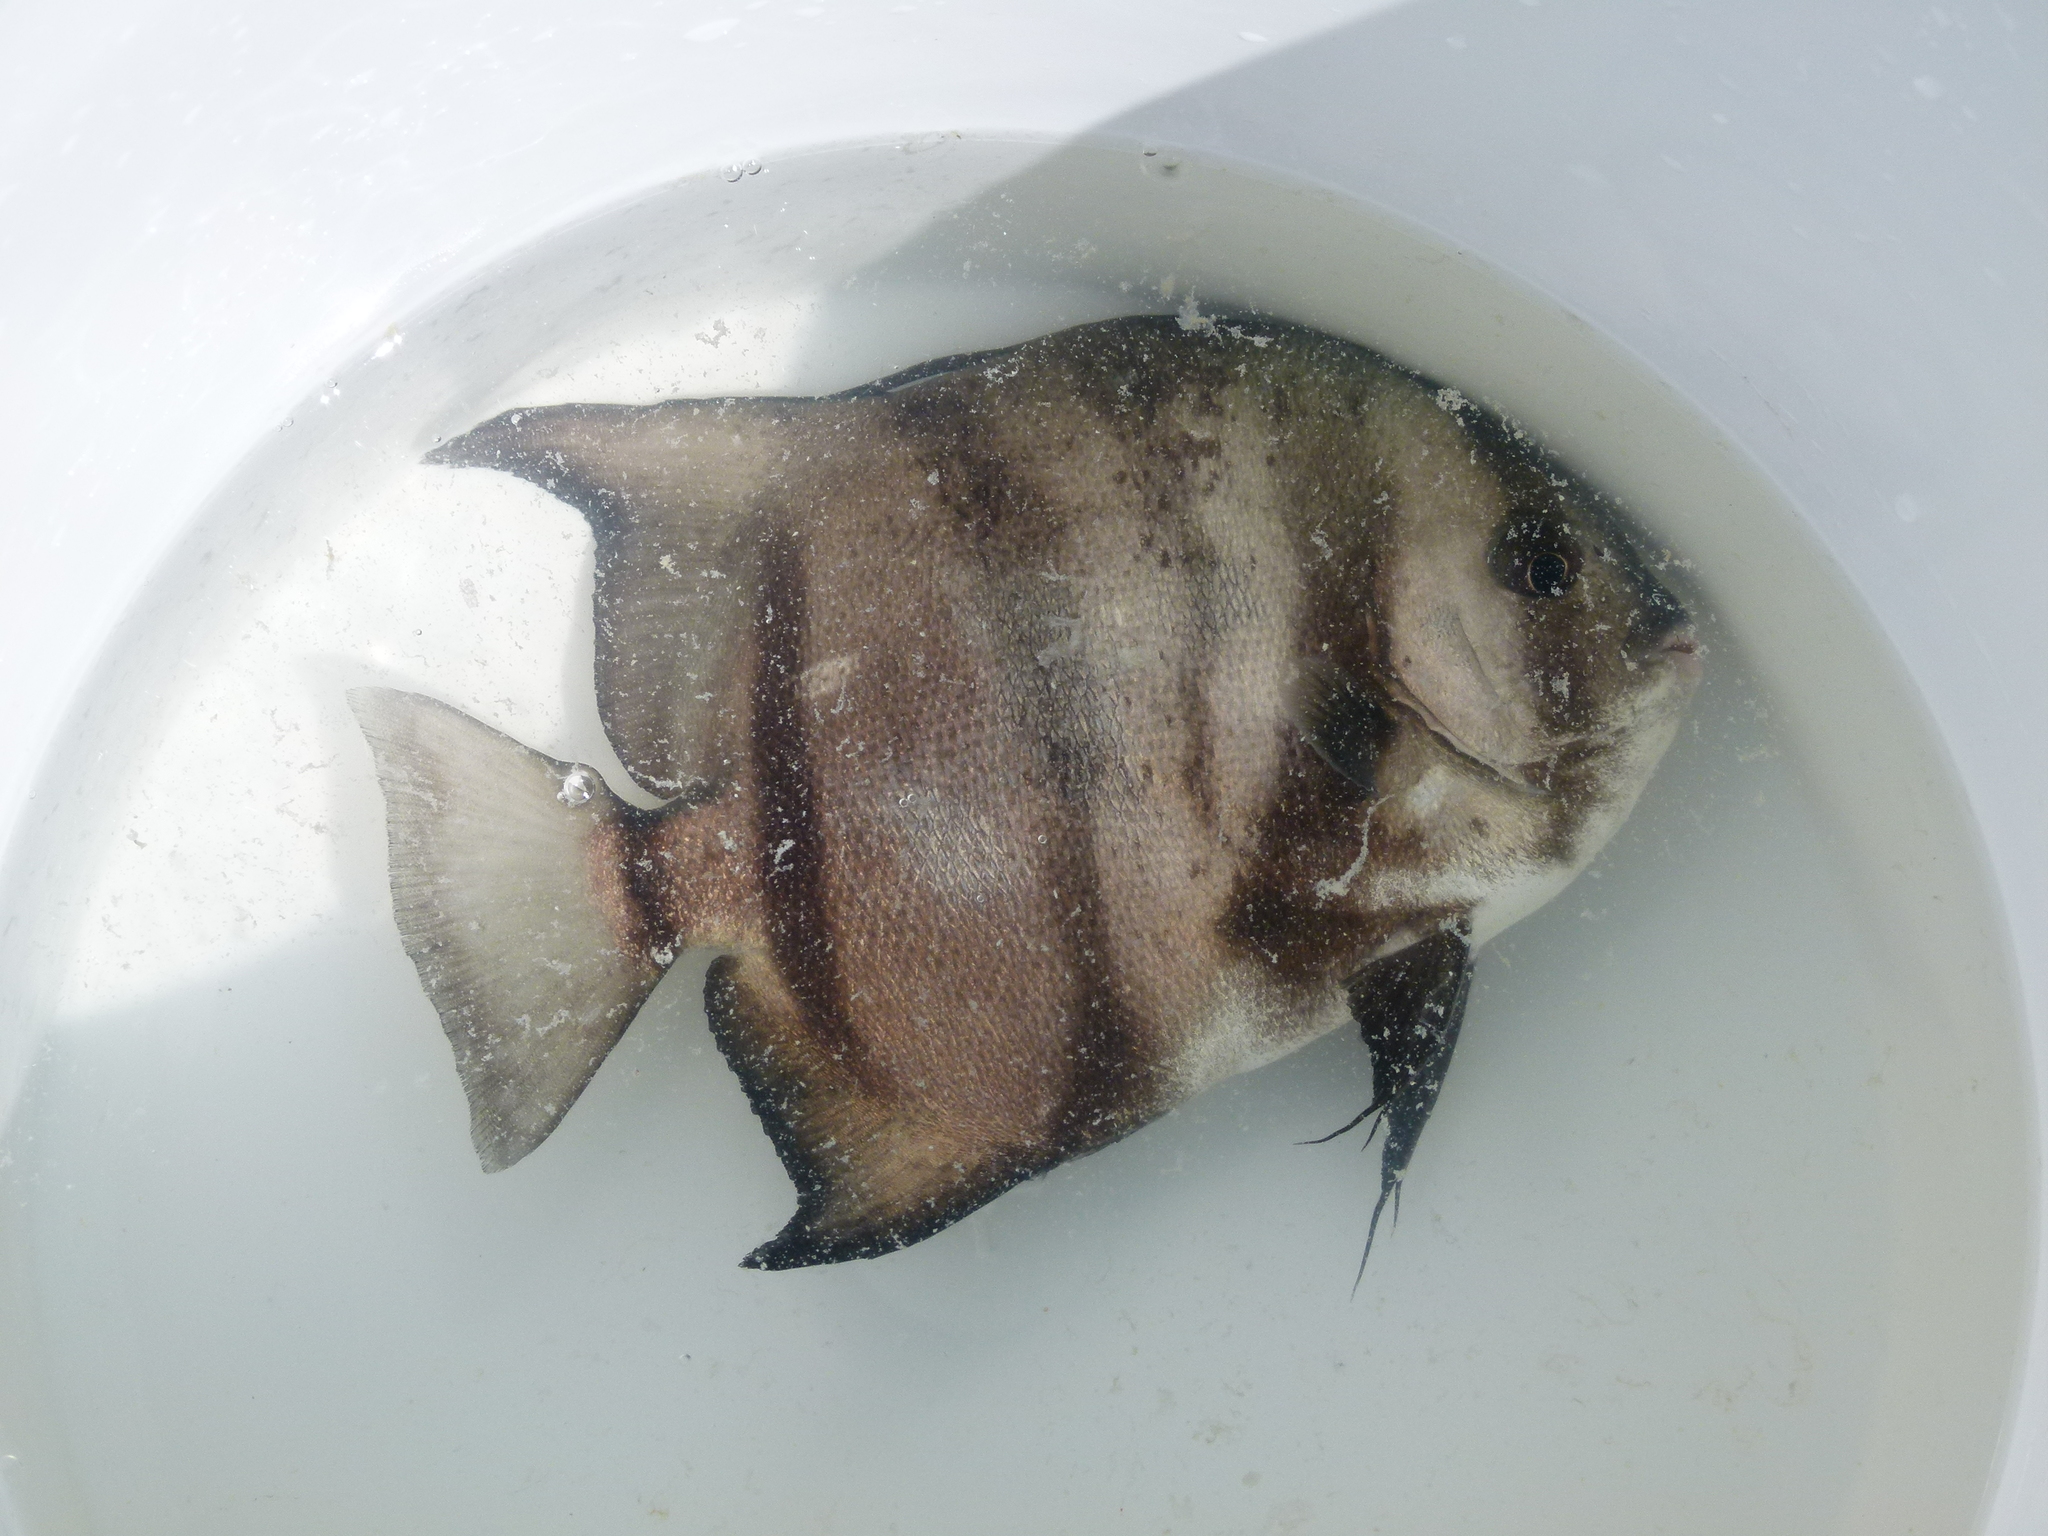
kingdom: Animalia
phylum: Chordata
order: Perciformes
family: Ephippidae
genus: Chaetodipterus
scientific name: Chaetodipterus faber
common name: Ocean cobbler
